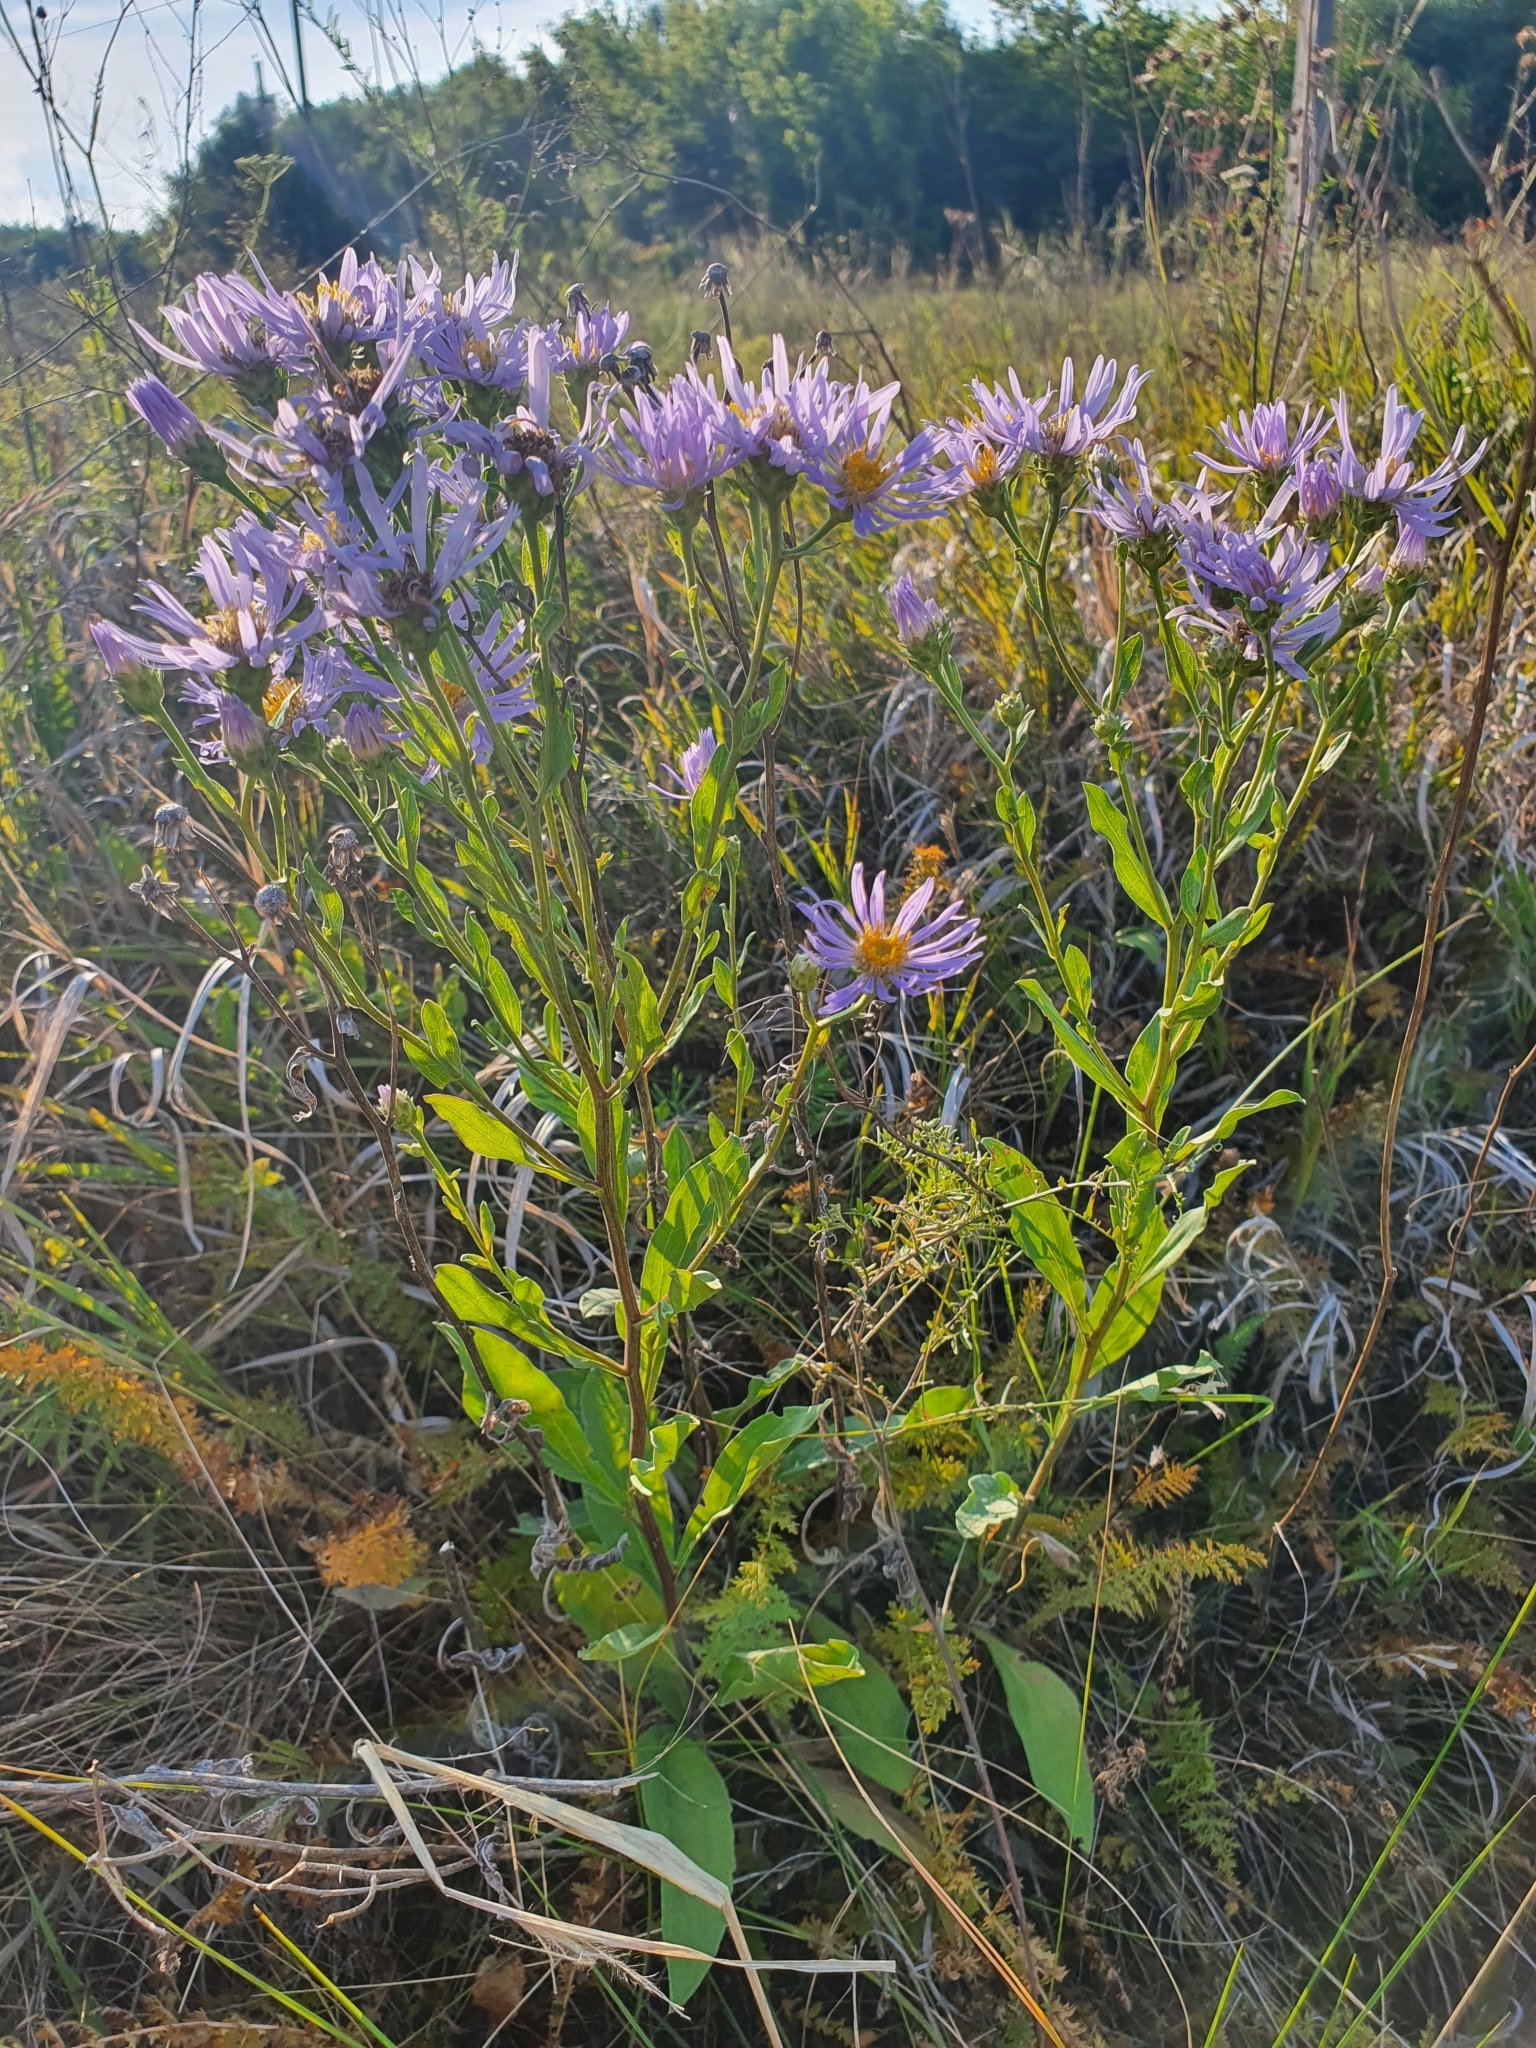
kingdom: Plantae
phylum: Tracheophyta
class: Magnoliopsida
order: Asterales
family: Asteraceae
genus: Aster
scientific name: Aster amellus
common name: European michaelmas daisy
